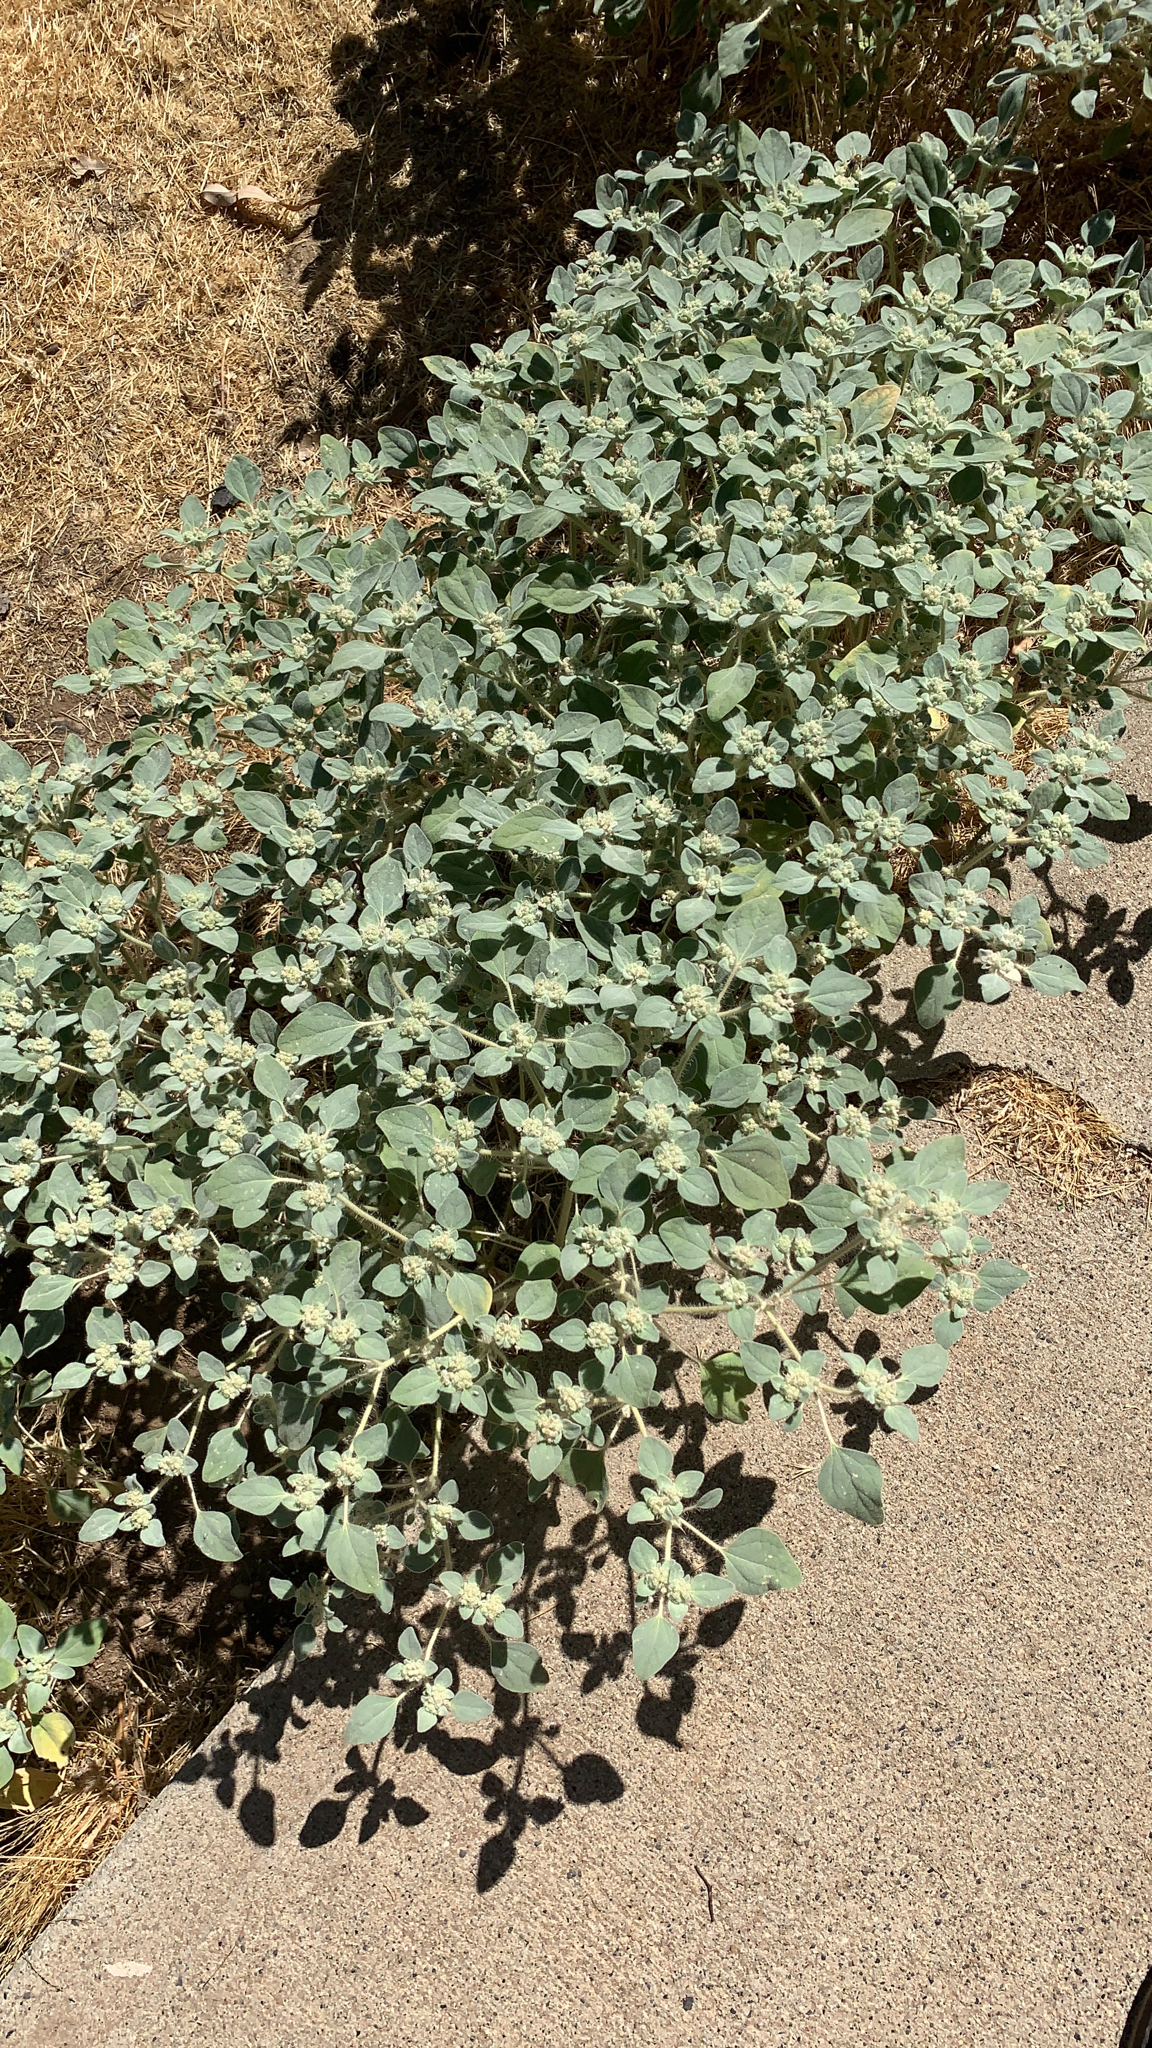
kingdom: Plantae
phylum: Tracheophyta
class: Magnoliopsida
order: Malpighiales
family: Euphorbiaceae
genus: Croton
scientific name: Croton setiger
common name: Dove weed
